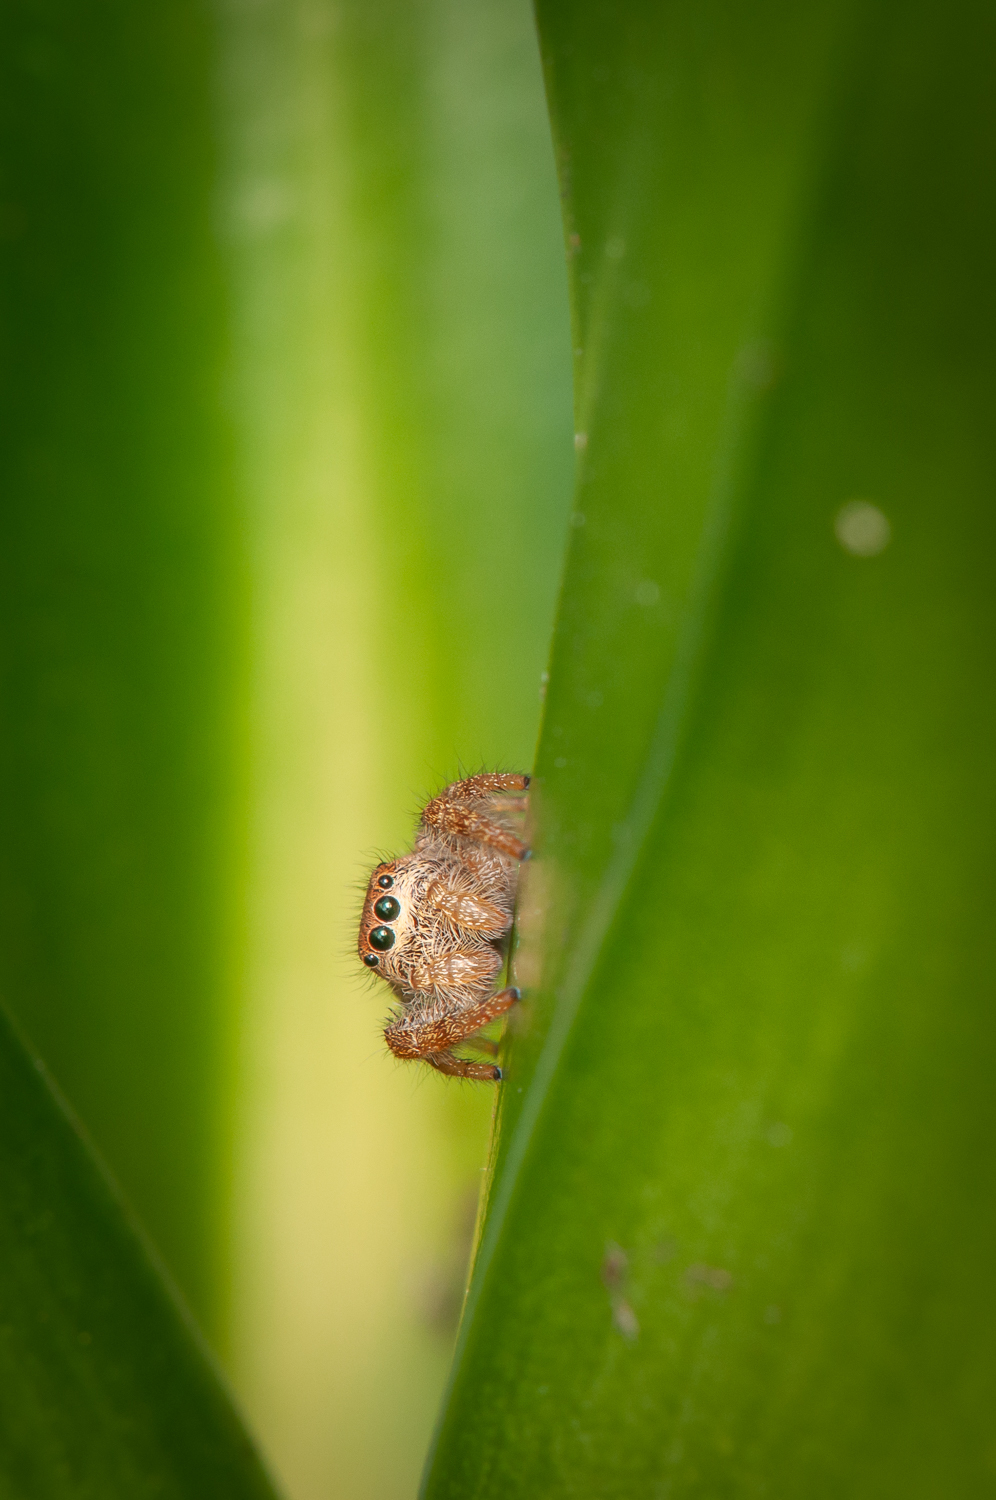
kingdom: Animalia
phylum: Arthropoda
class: Arachnida
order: Araneae
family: Salticidae
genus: Paraphidippus
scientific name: Paraphidippus fartilis
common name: Jumping spiders
